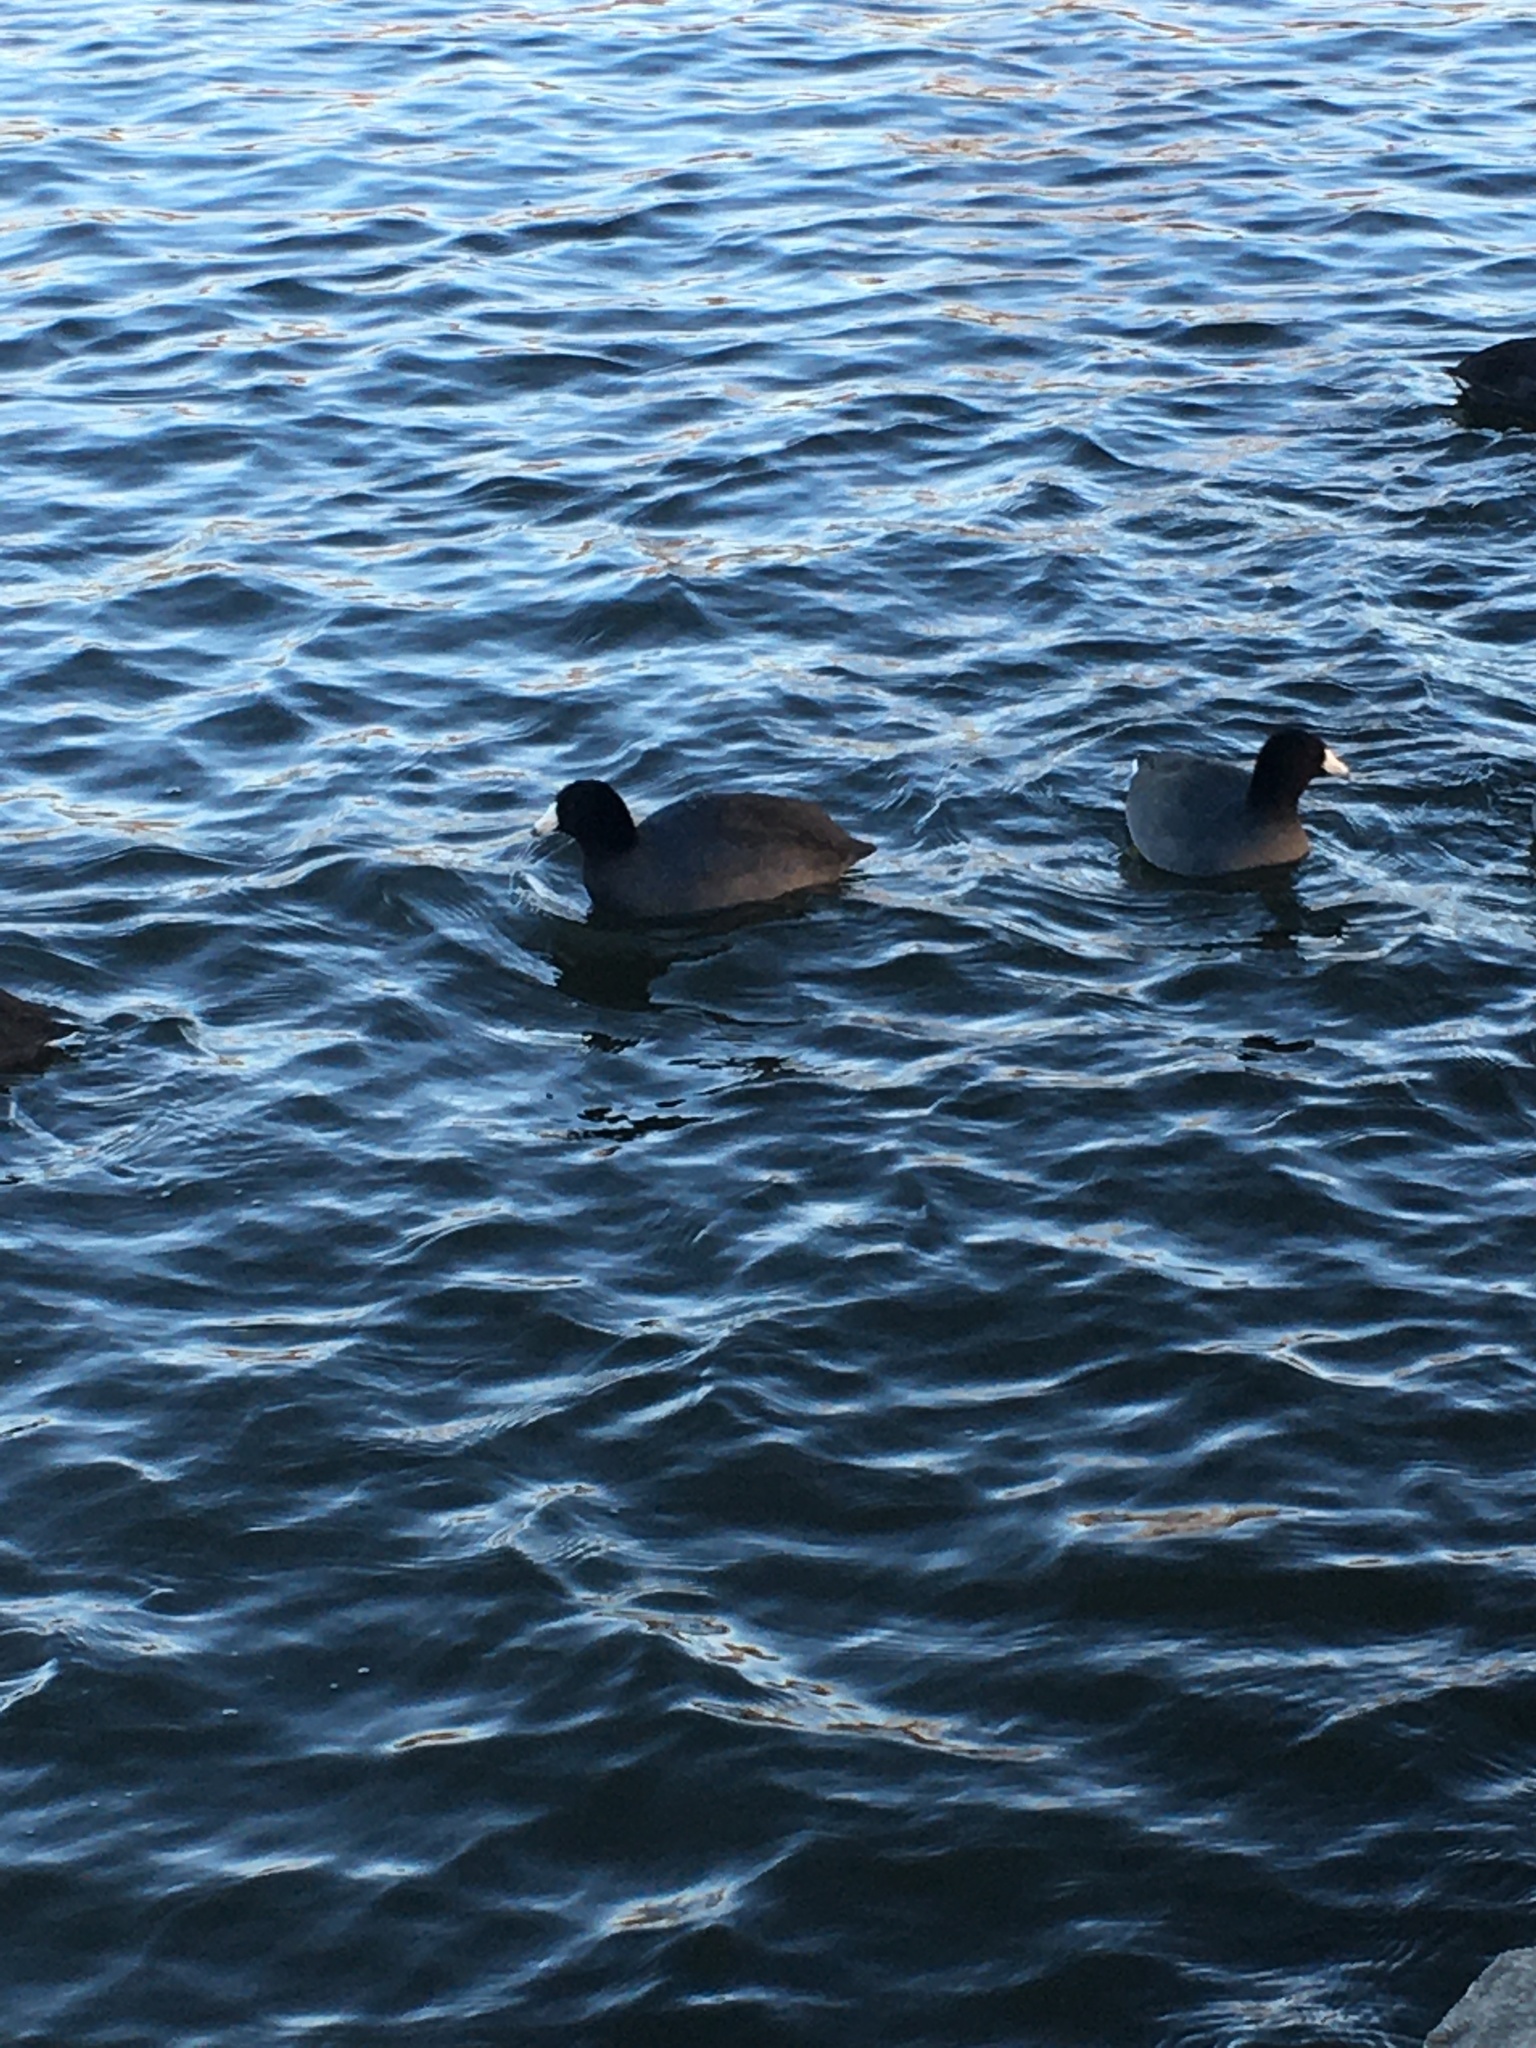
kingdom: Animalia
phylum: Chordata
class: Aves
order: Gruiformes
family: Rallidae
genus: Fulica
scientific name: Fulica americana
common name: American coot
